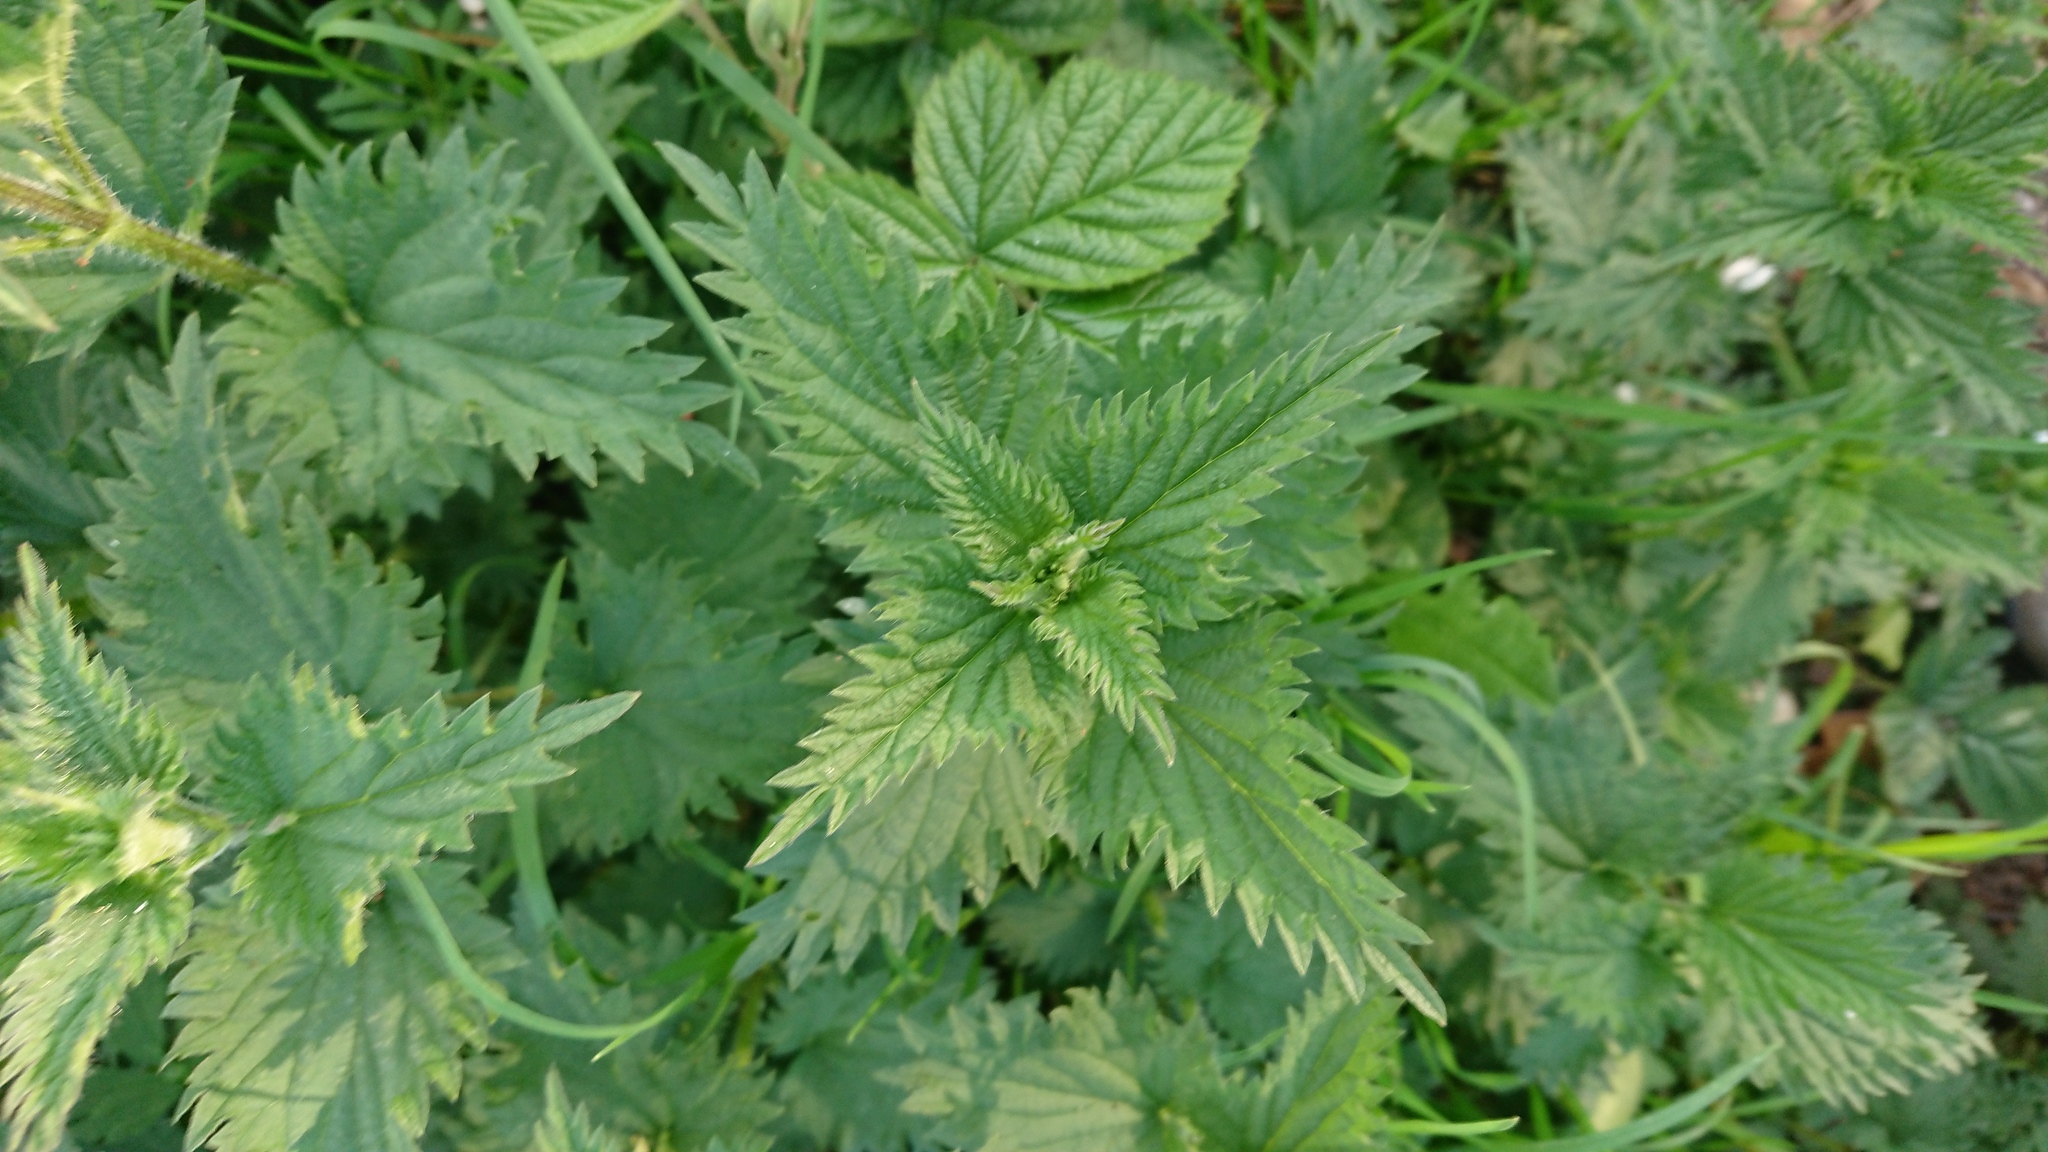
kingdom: Plantae
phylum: Tracheophyta
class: Magnoliopsida
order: Rosales
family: Urticaceae
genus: Urtica
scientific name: Urtica dioica
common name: Common nettle
